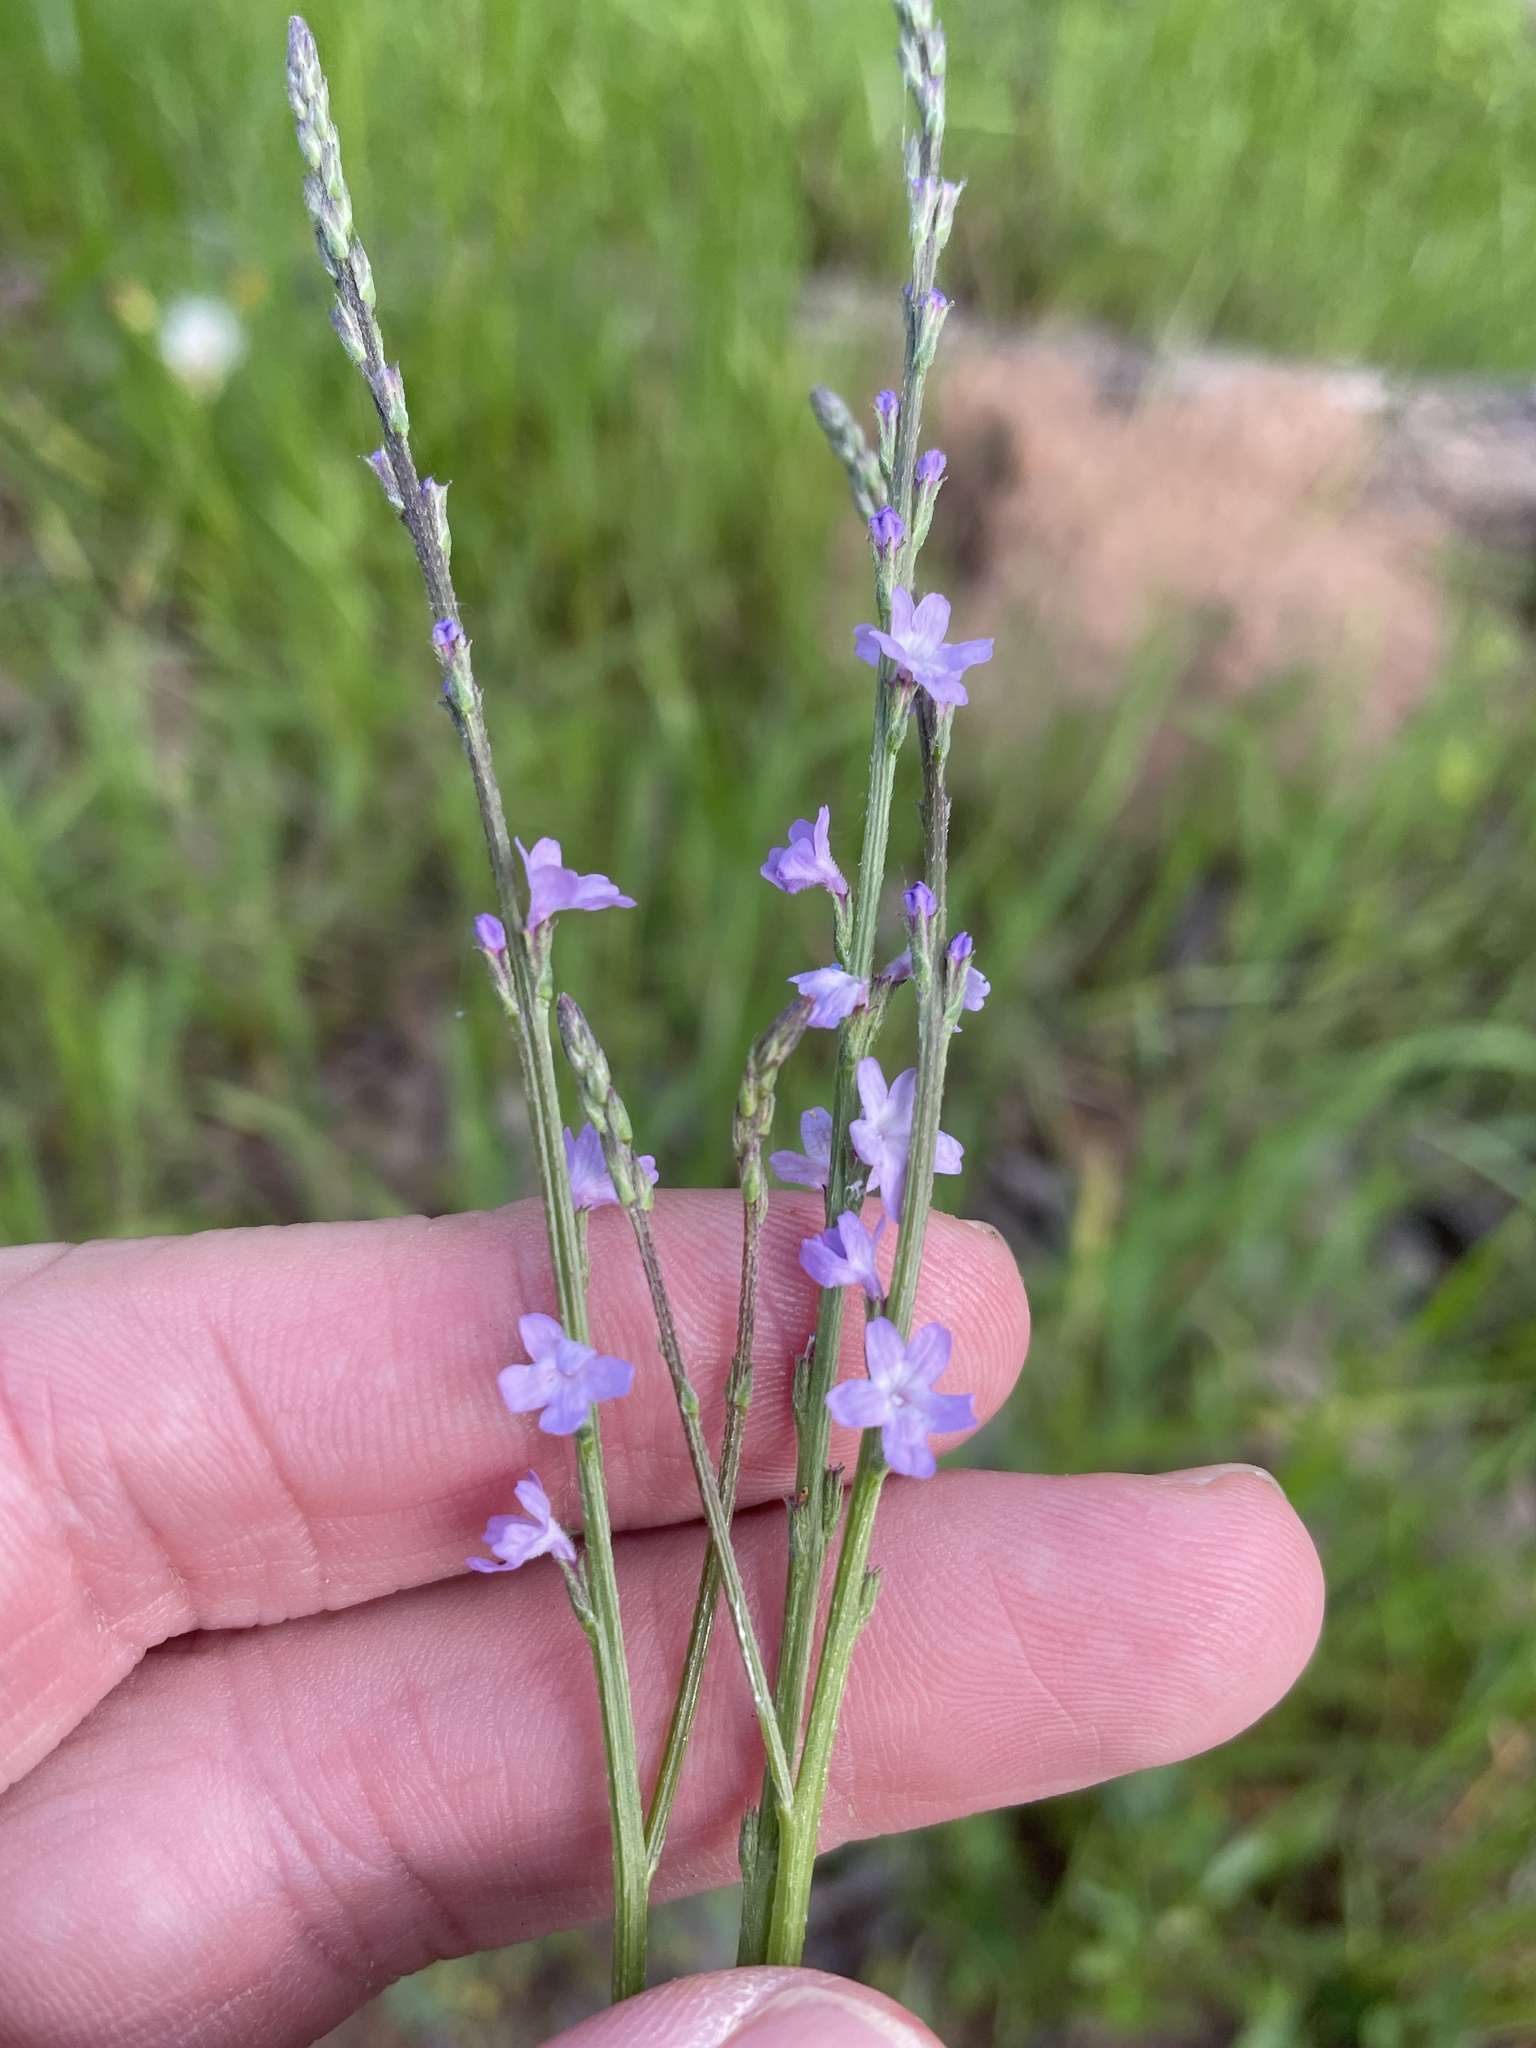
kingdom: Plantae
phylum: Tracheophyta
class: Magnoliopsida
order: Lamiales
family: Verbenaceae
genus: Verbena
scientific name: Verbena halei
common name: Texas vervain
